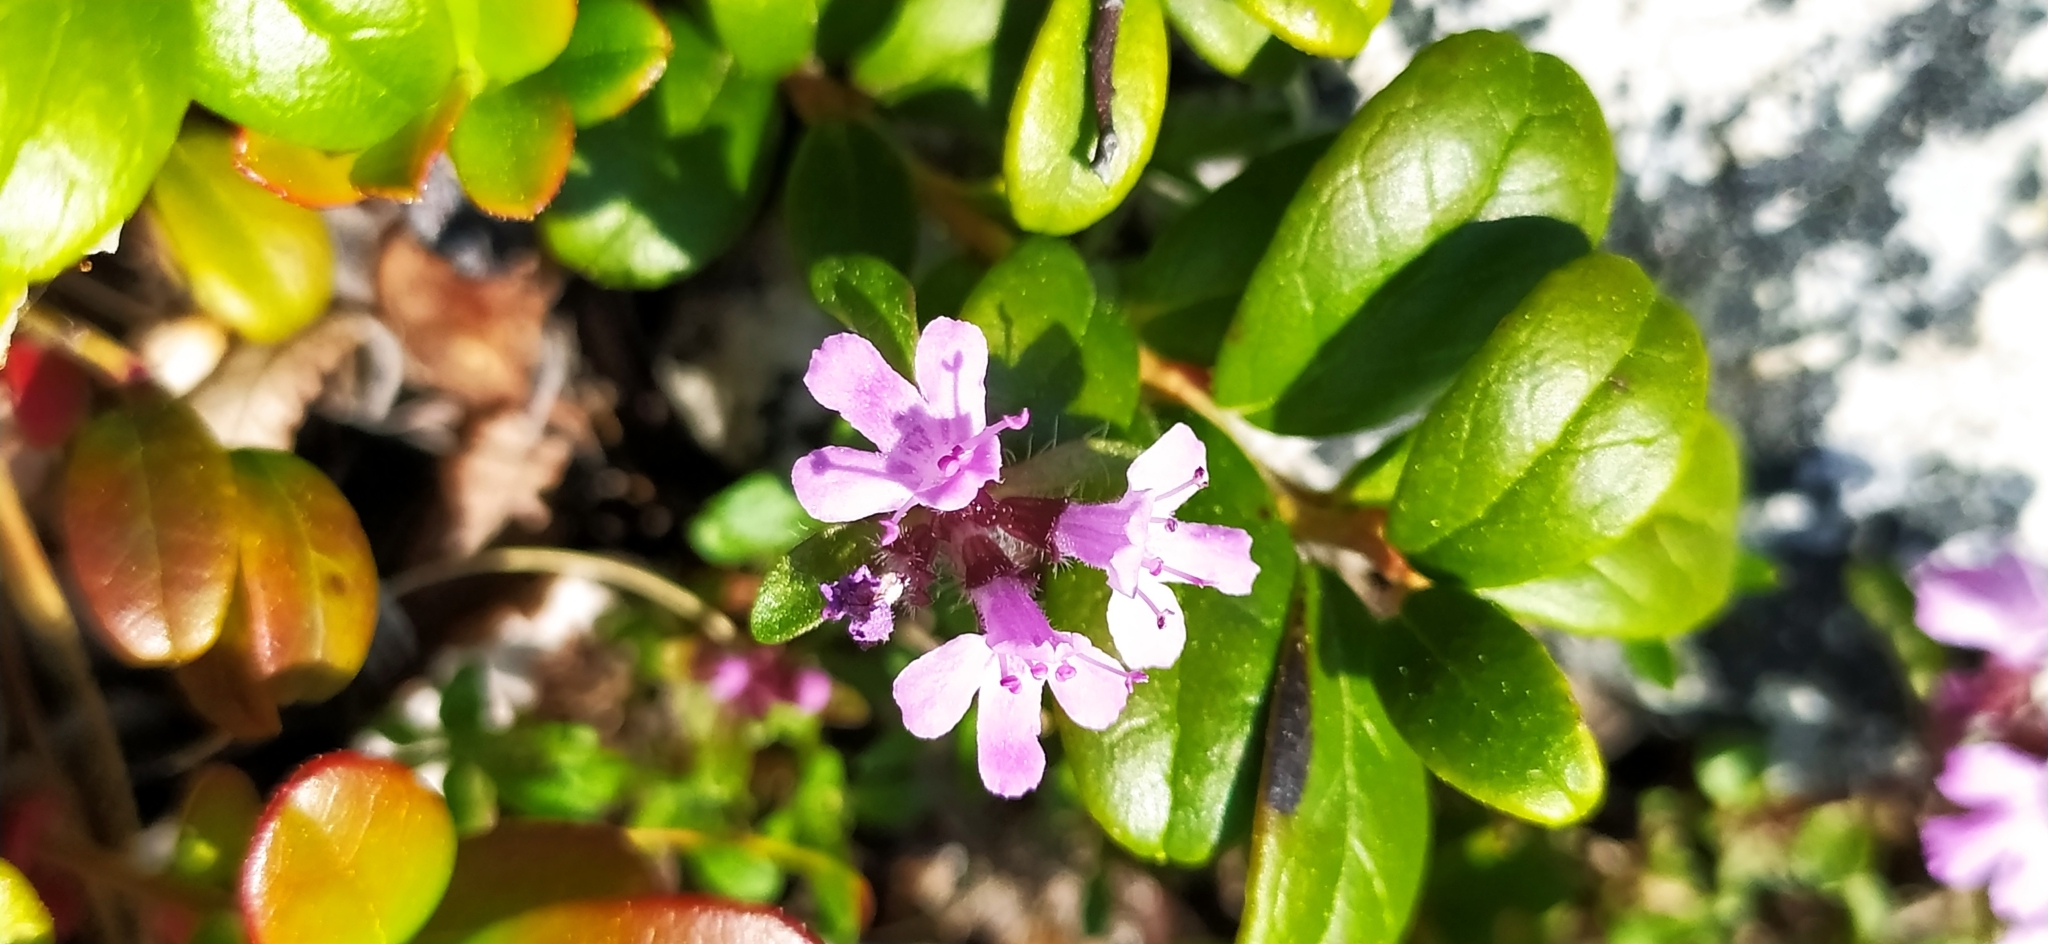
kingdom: Plantae
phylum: Tracheophyta
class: Magnoliopsida
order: Lamiales
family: Lamiaceae
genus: Thymus
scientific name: Thymus glabricaulis
